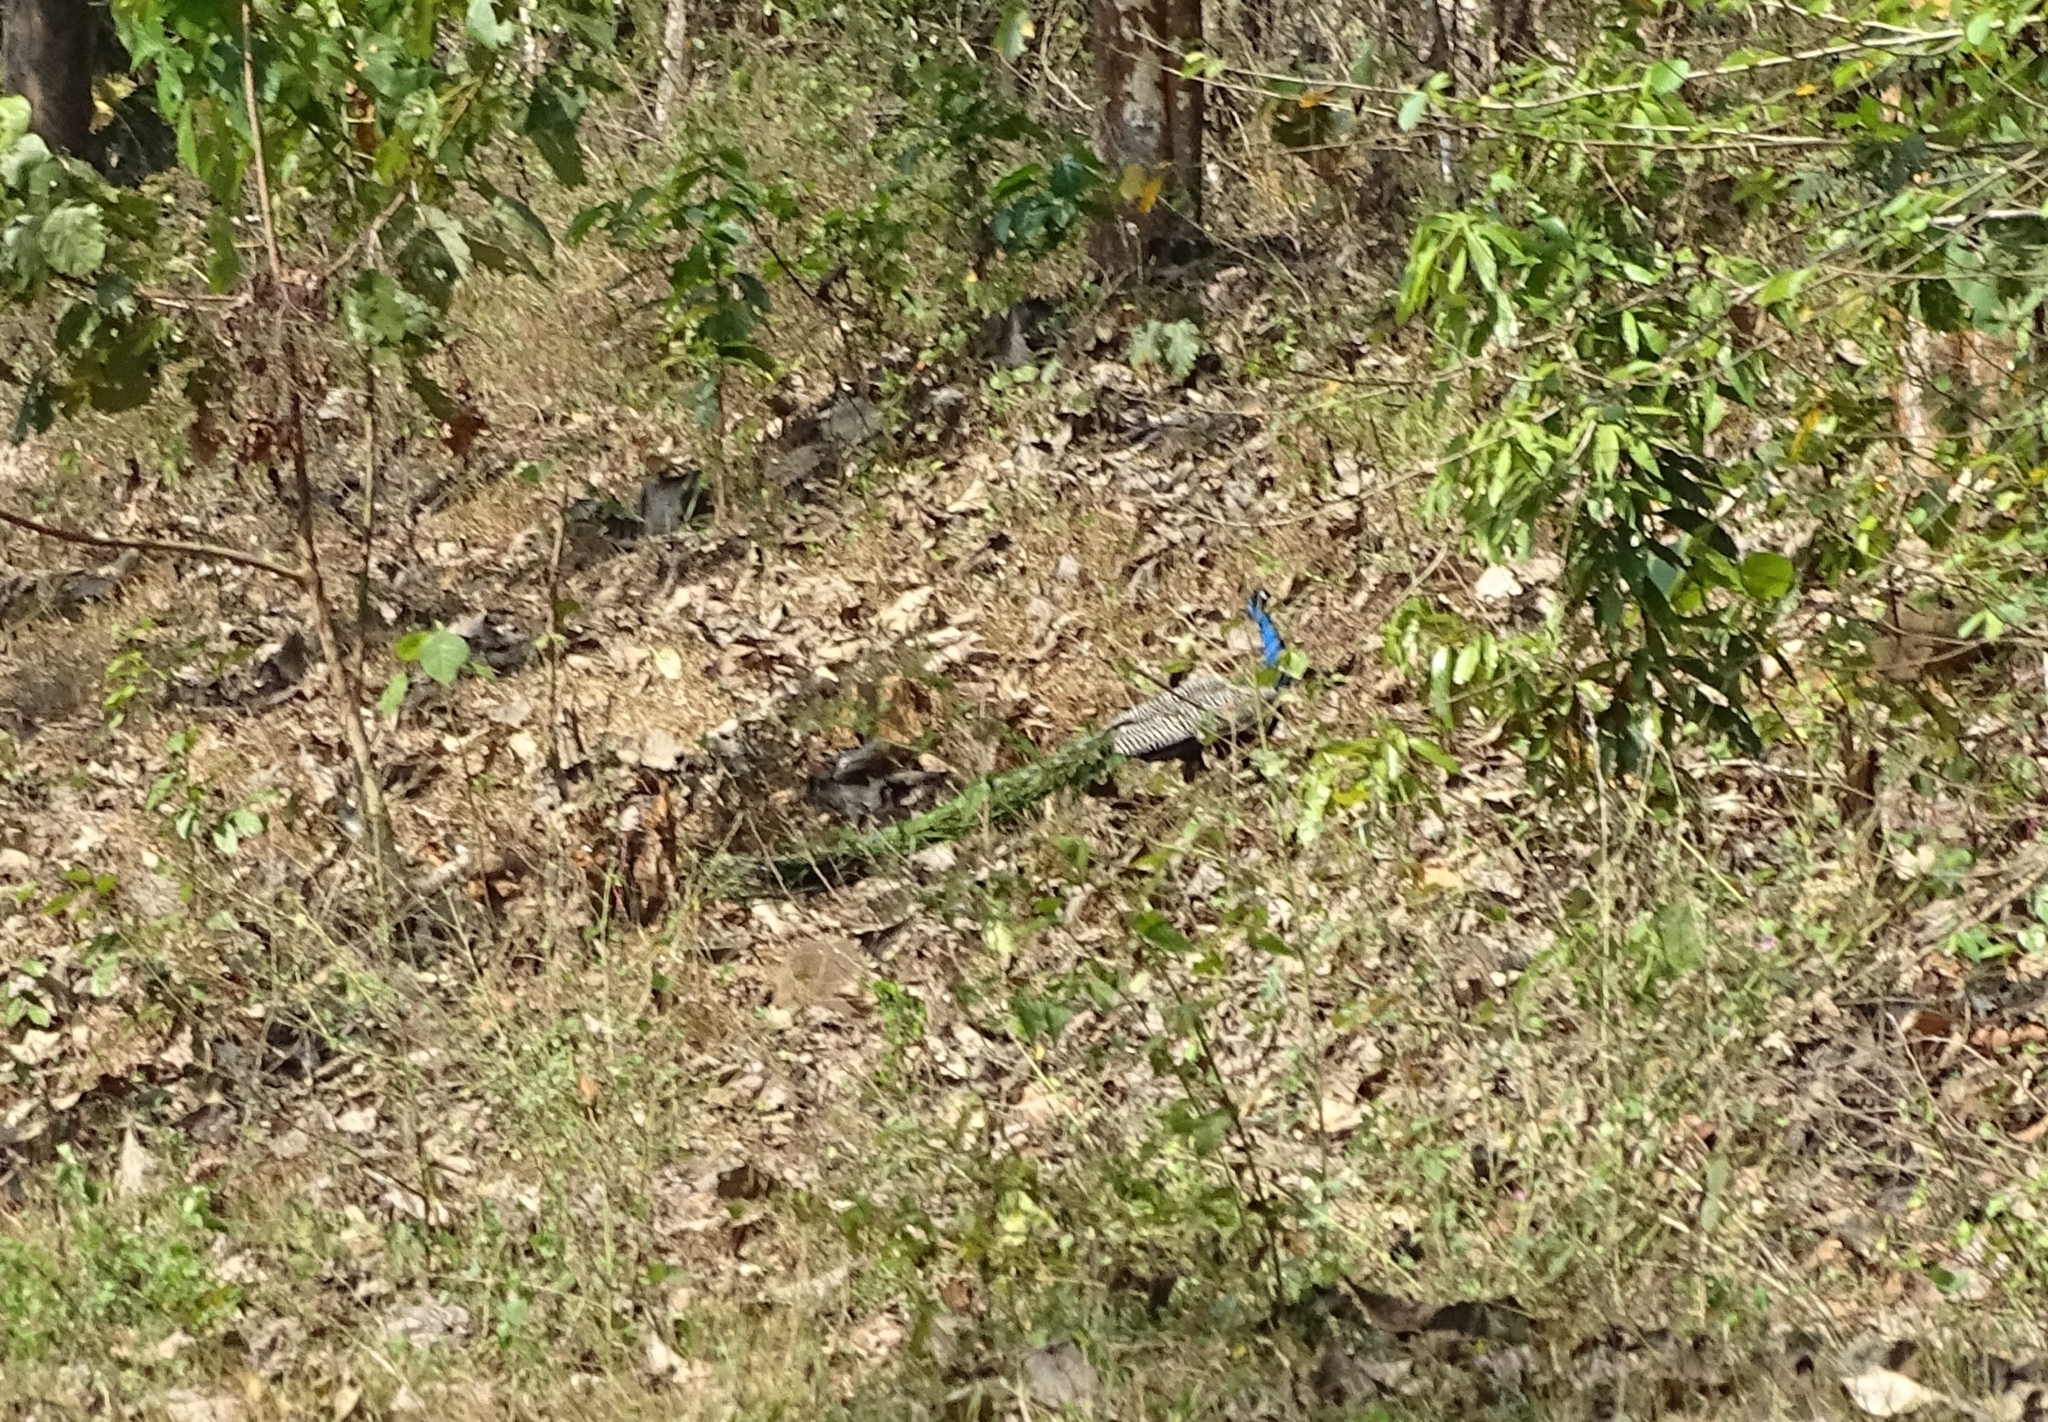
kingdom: Animalia
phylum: Chordata
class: Aves
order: Galliformes
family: Phasianidae
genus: Pavo
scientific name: Pavo cristatus
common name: Indian peafowl
